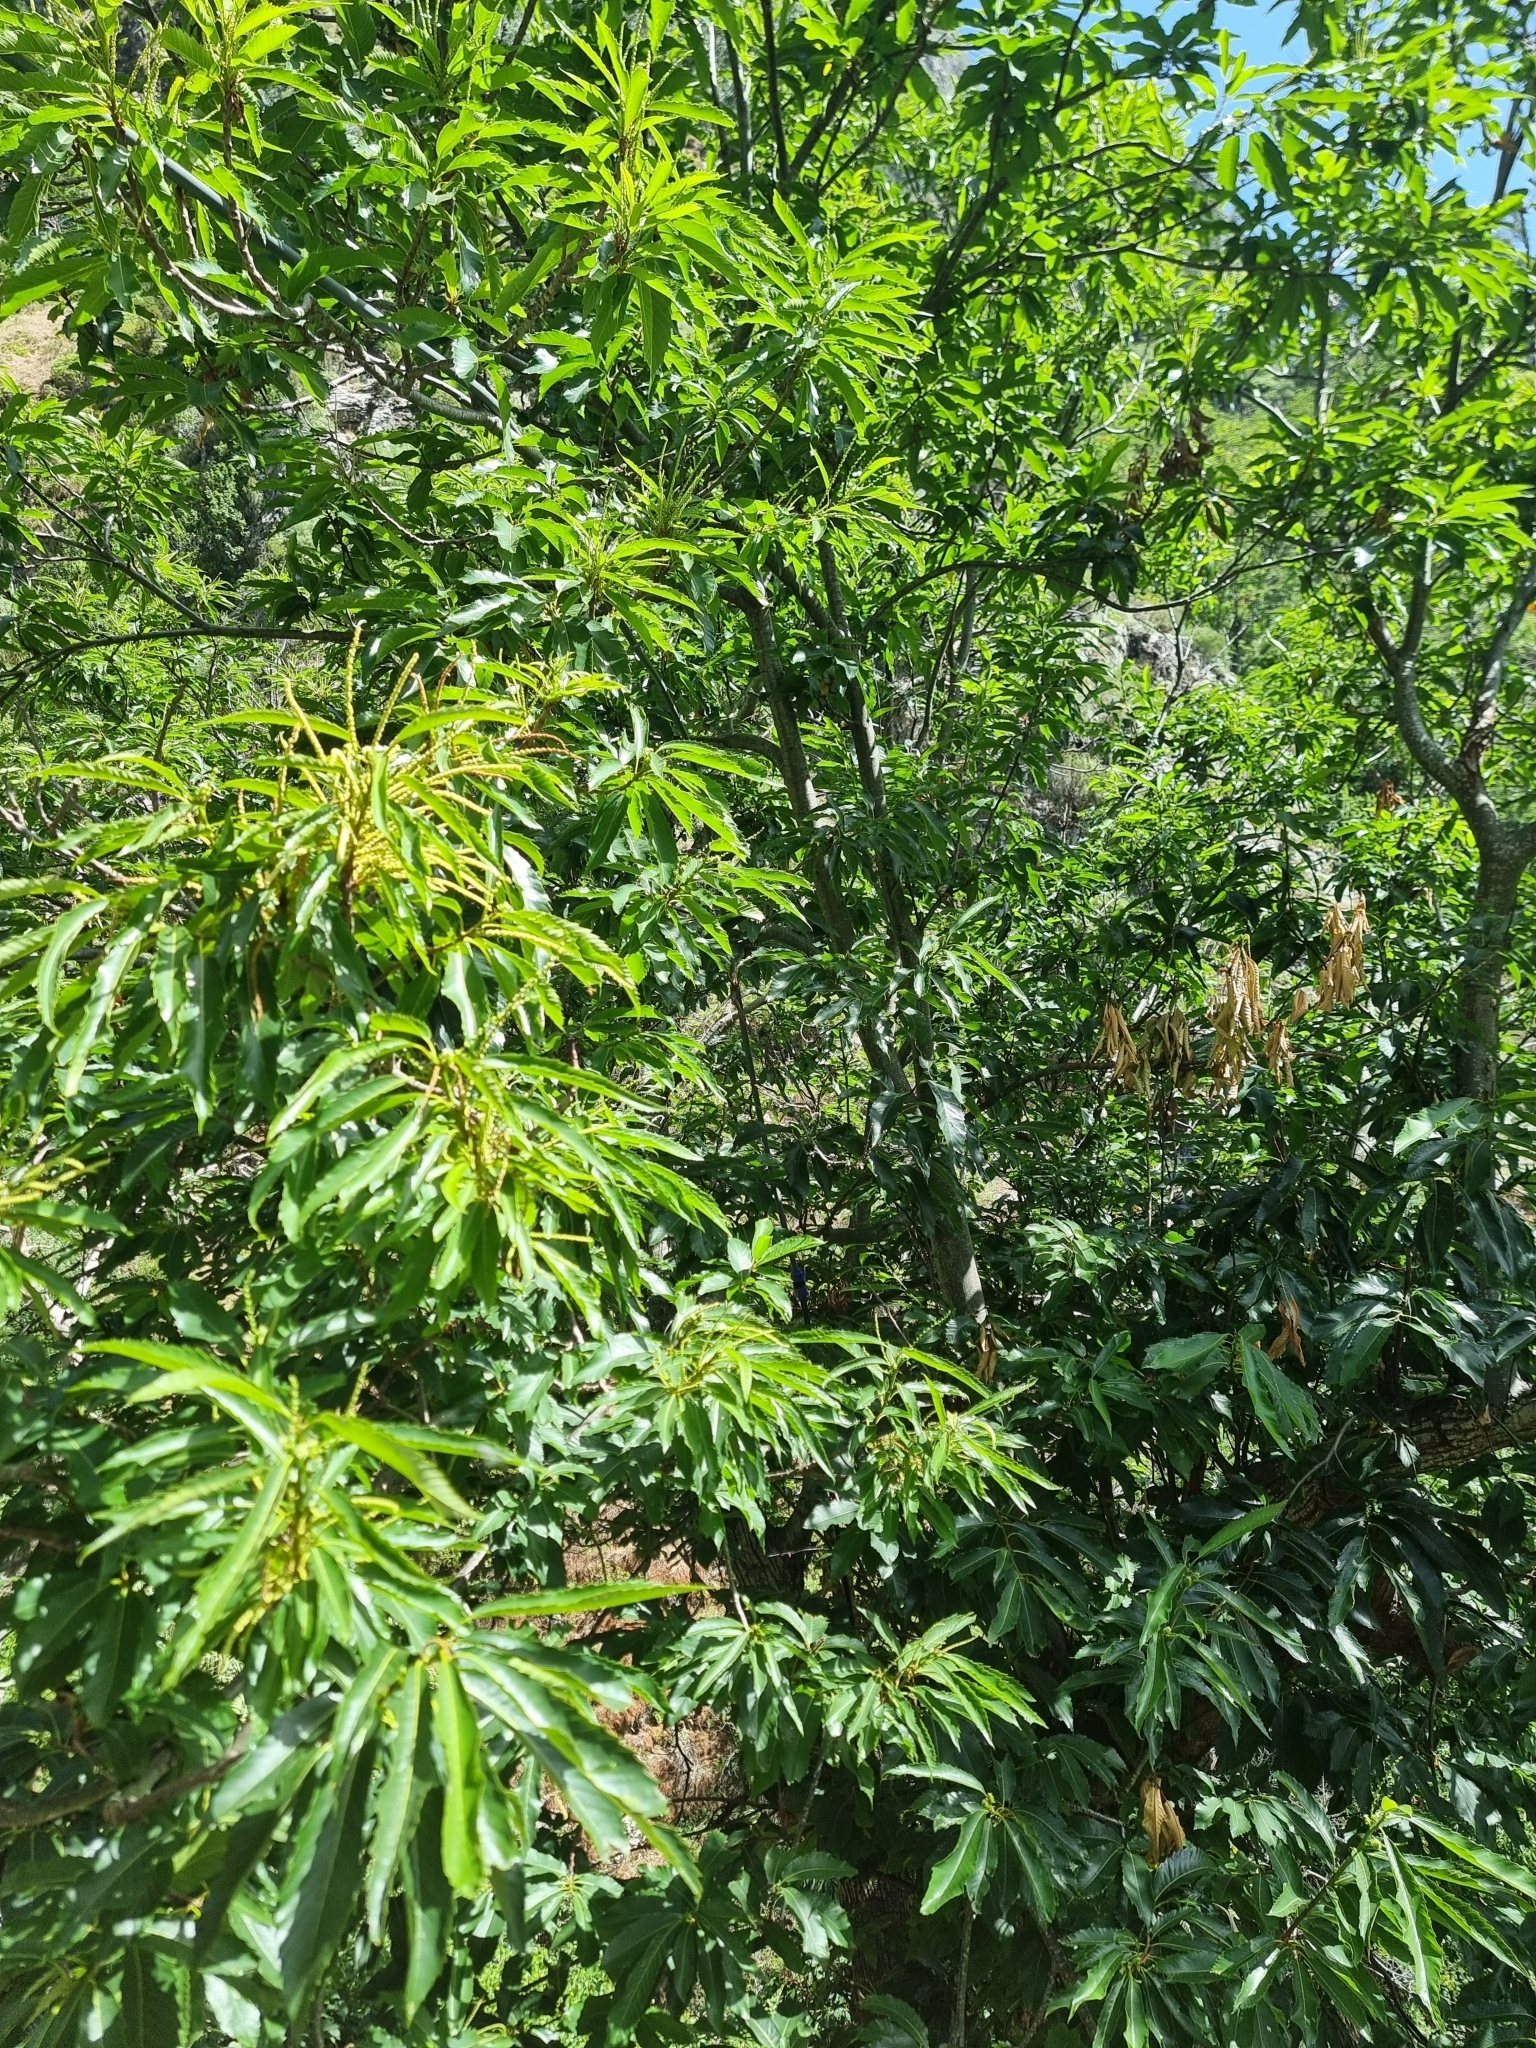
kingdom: Plantae
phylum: Tracheophyta
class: Magnoliopsida
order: Fagales
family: Fagaceae
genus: Castanea
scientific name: Castanea sativa
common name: Sweet chestnut
